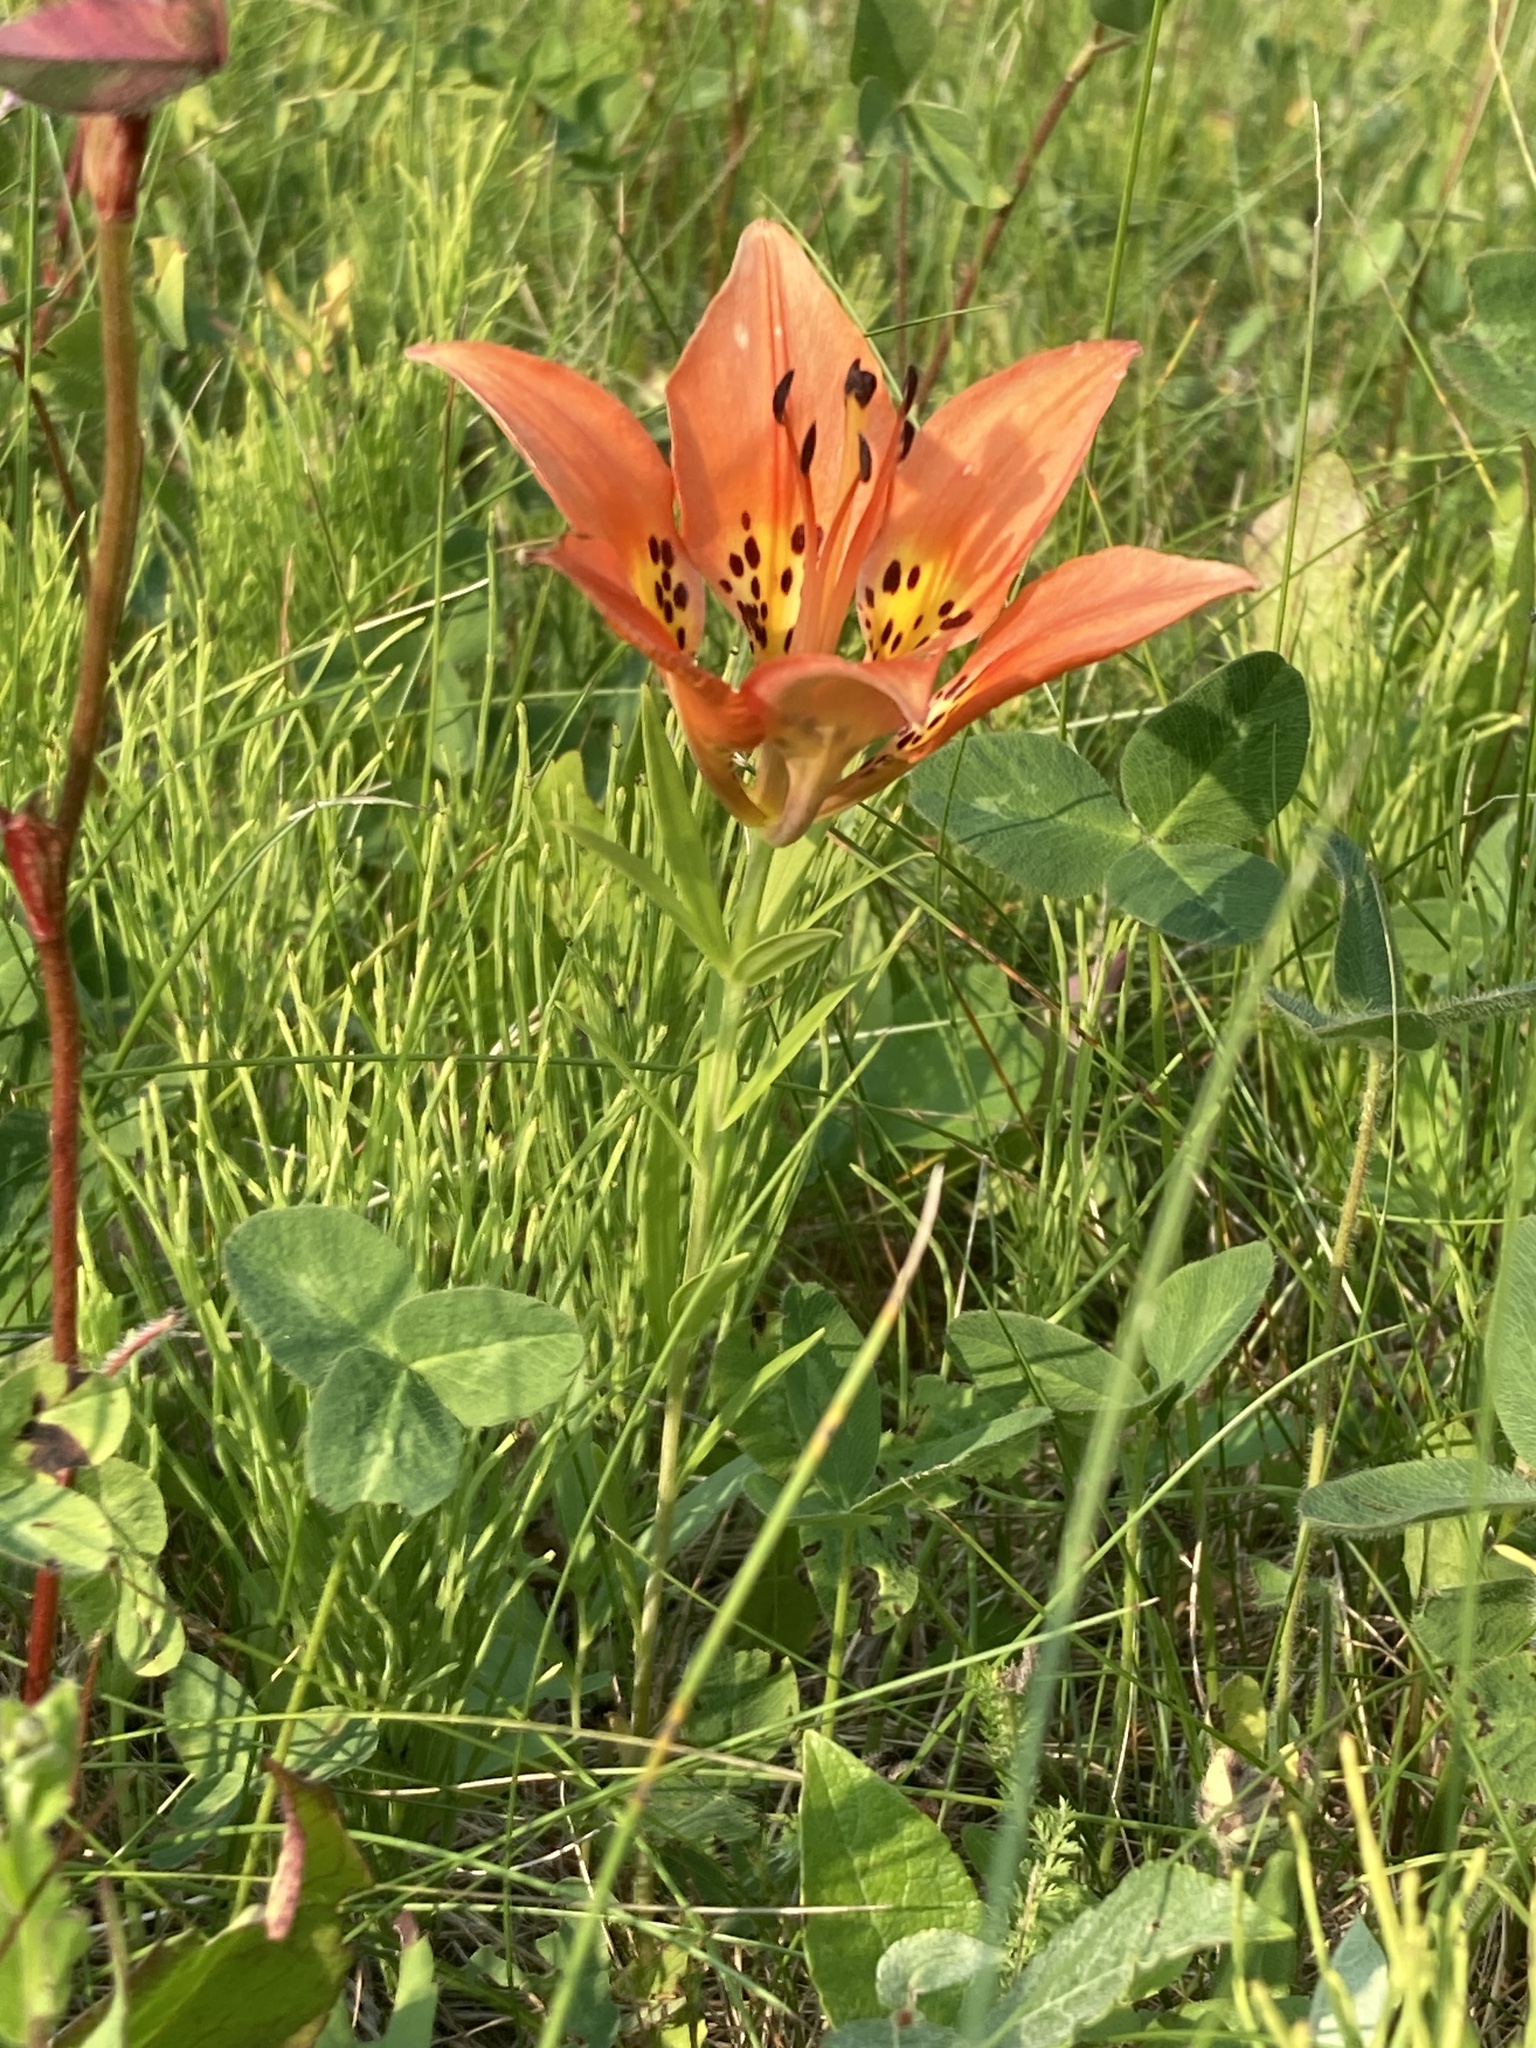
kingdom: Plantae
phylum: Tracheophyta
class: Liliopsida
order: Liliales
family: Liliaceae
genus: Lilium
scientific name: Lilium philadelphicum
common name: Red lily
